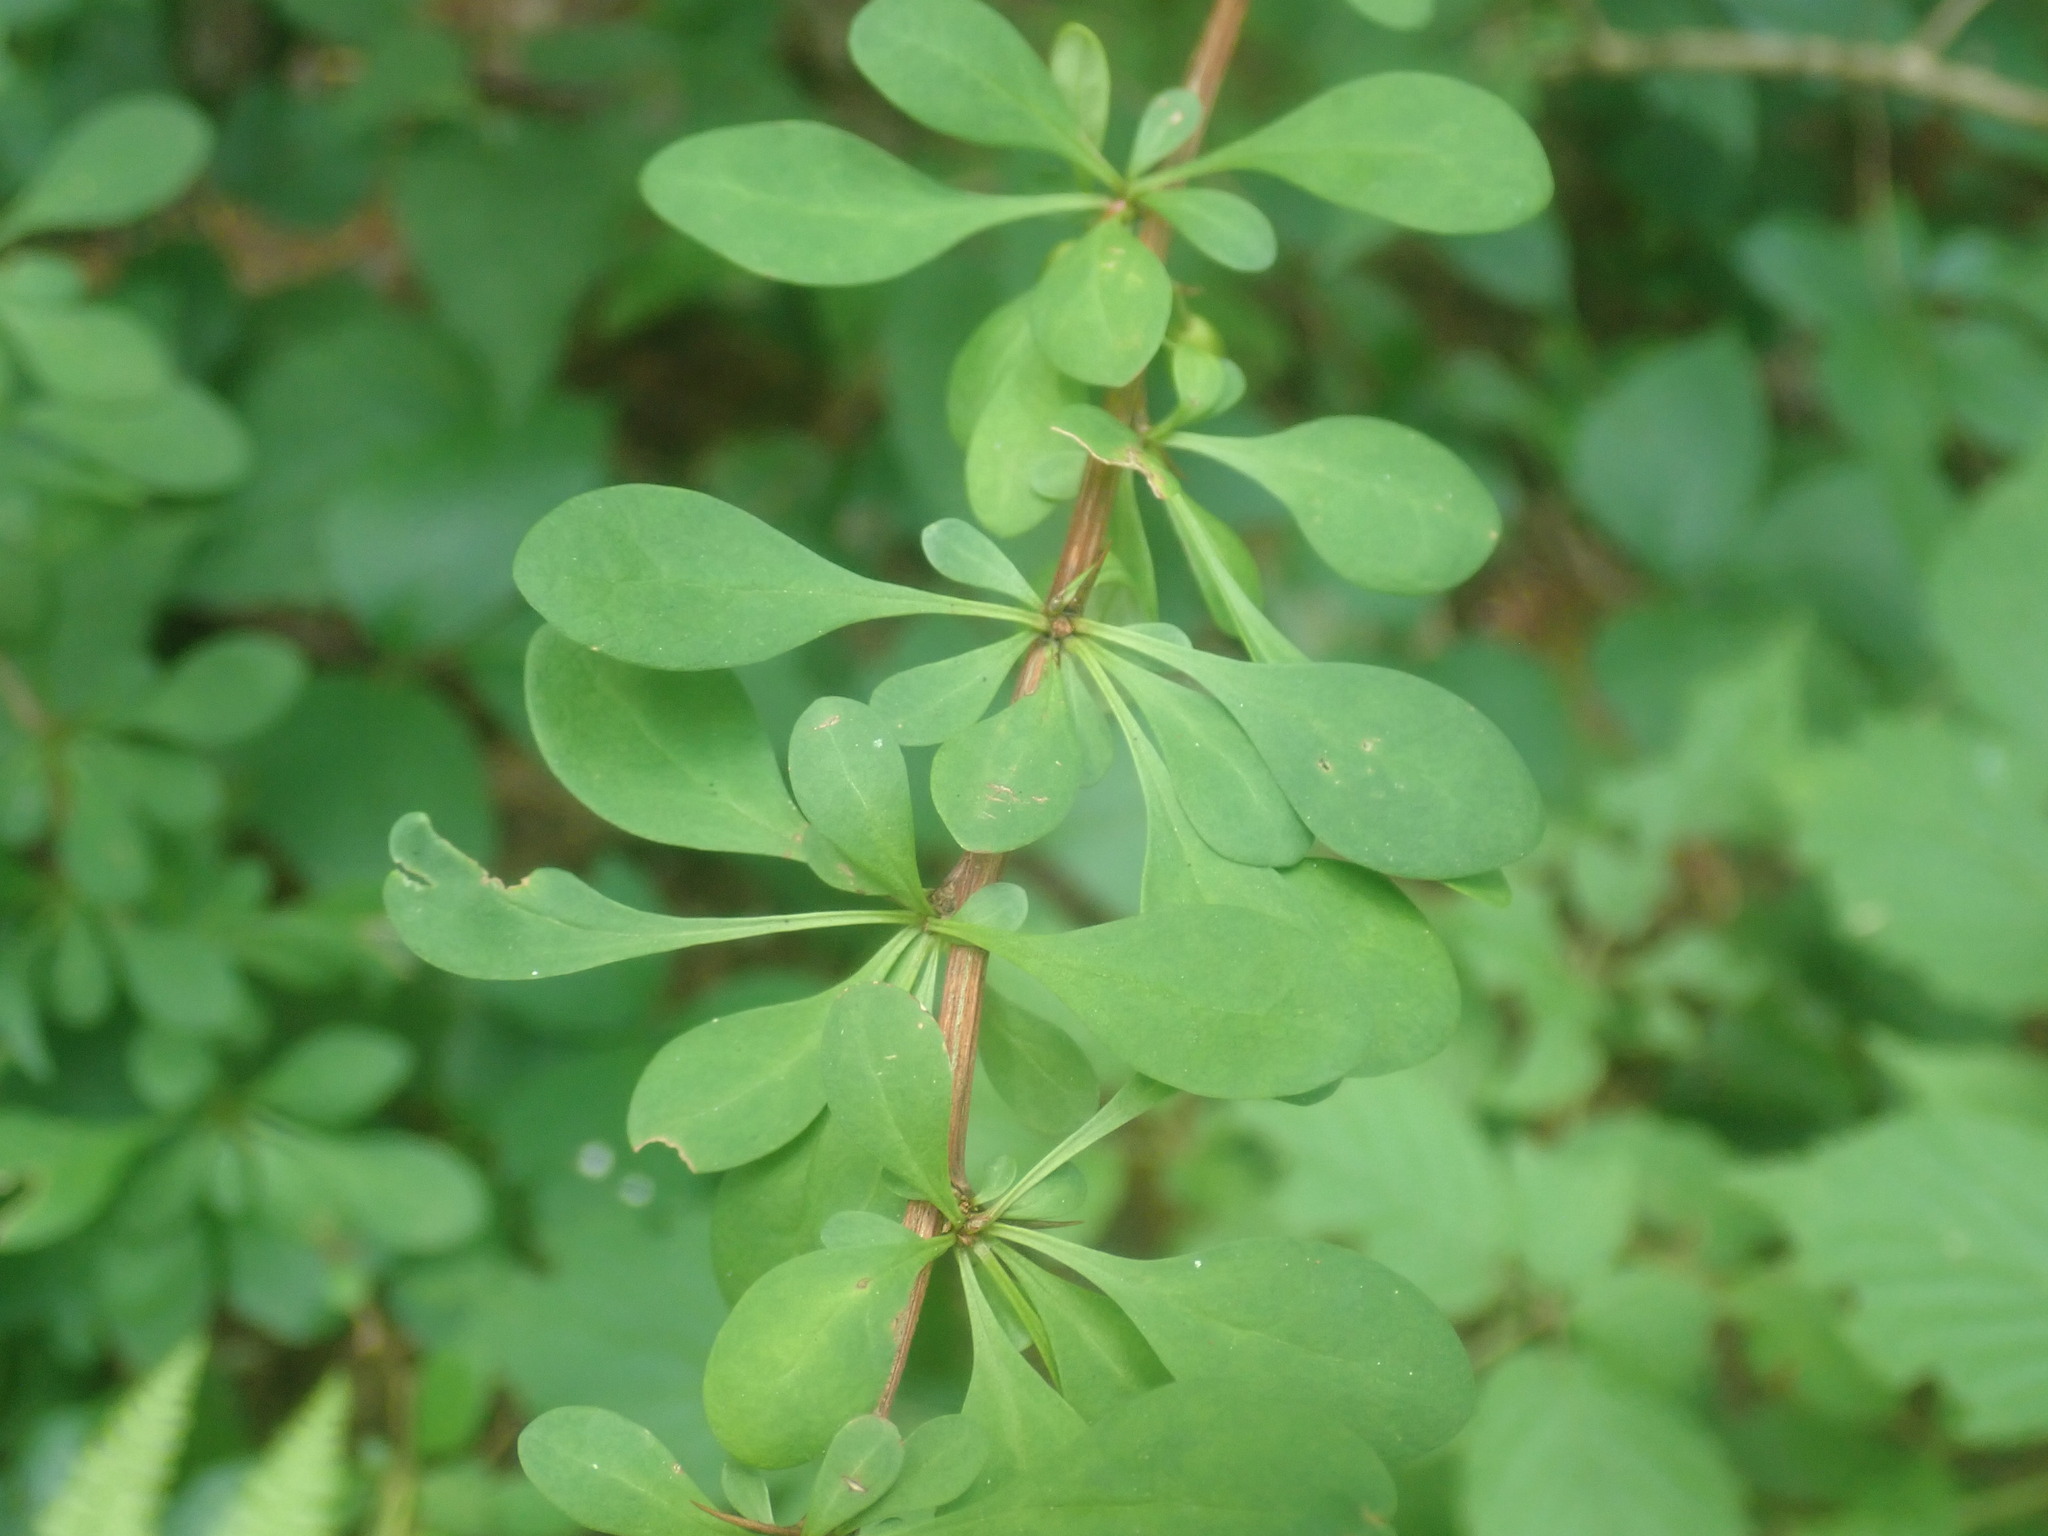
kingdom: Plantae
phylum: Tracheophyta
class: Magnoliopsida
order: Ranunculales
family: Berberidaceae
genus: Berberis
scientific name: Berberis thunbergii
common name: Japanese barberry
